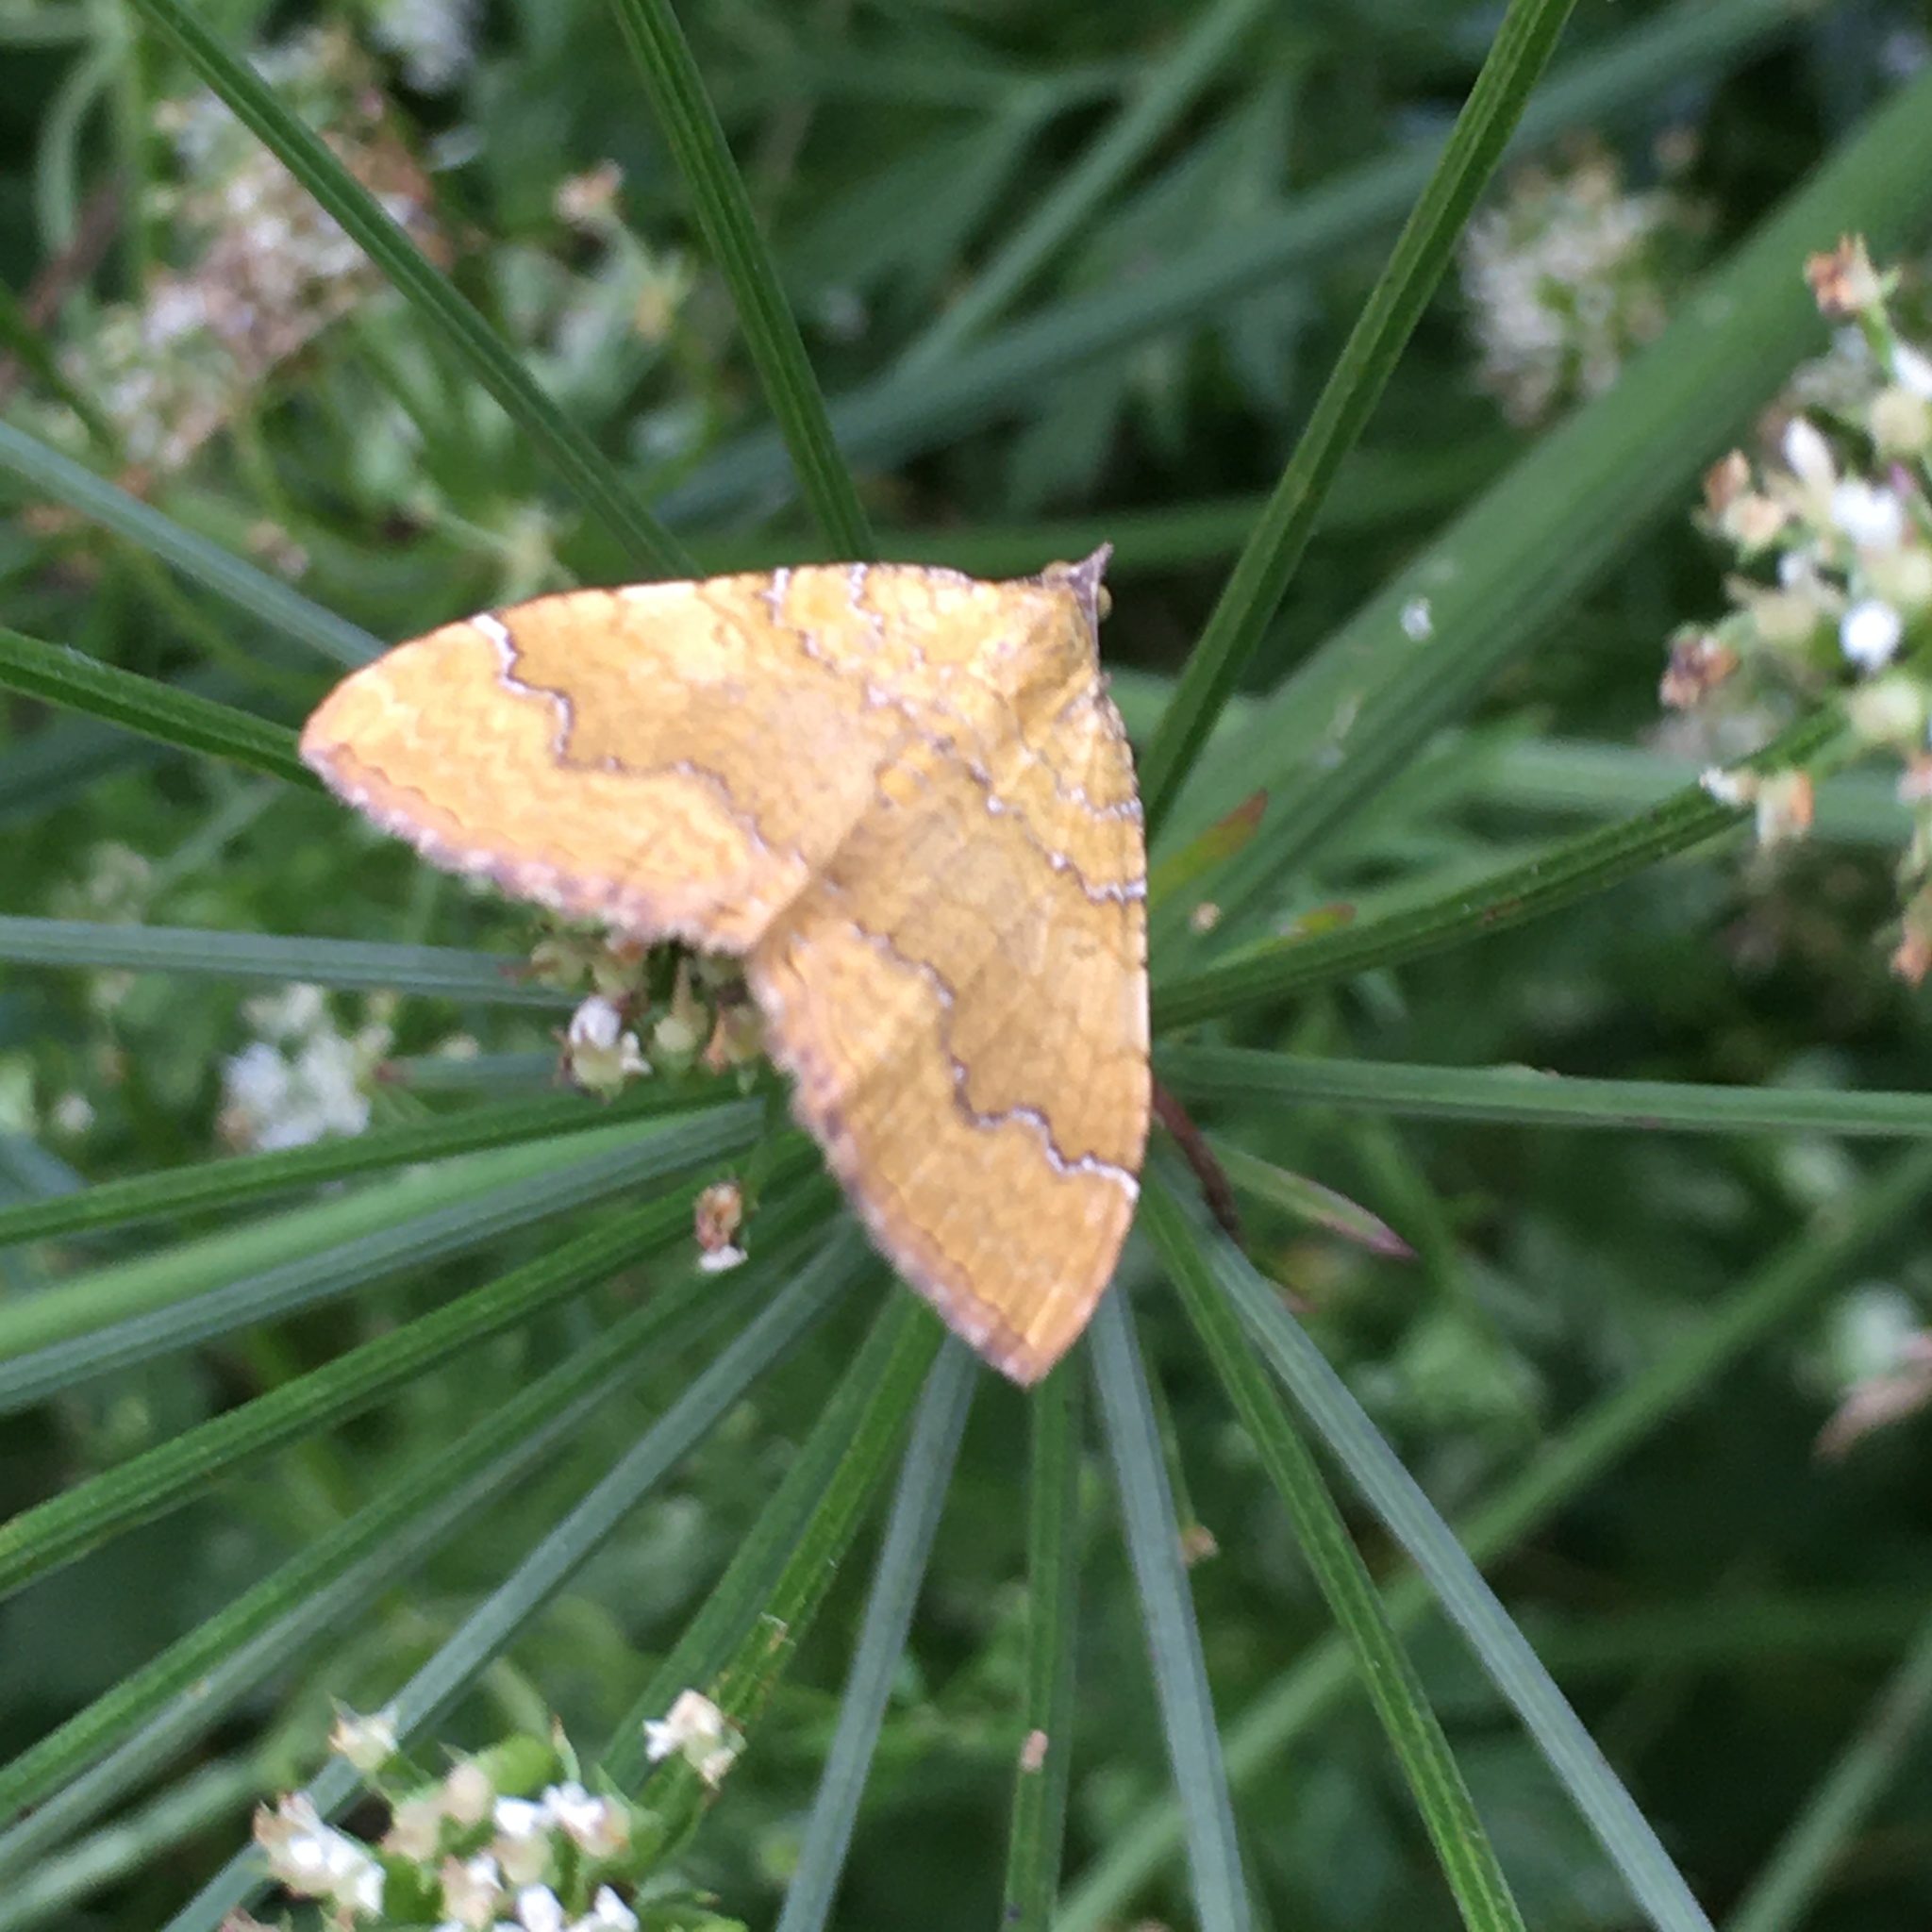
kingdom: Animalia
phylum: Arthropoda
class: Insecta
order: Lepidoptera
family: Geometridae
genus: Camptogramma
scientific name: Camptogramma bilineata
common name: Yellow shell
